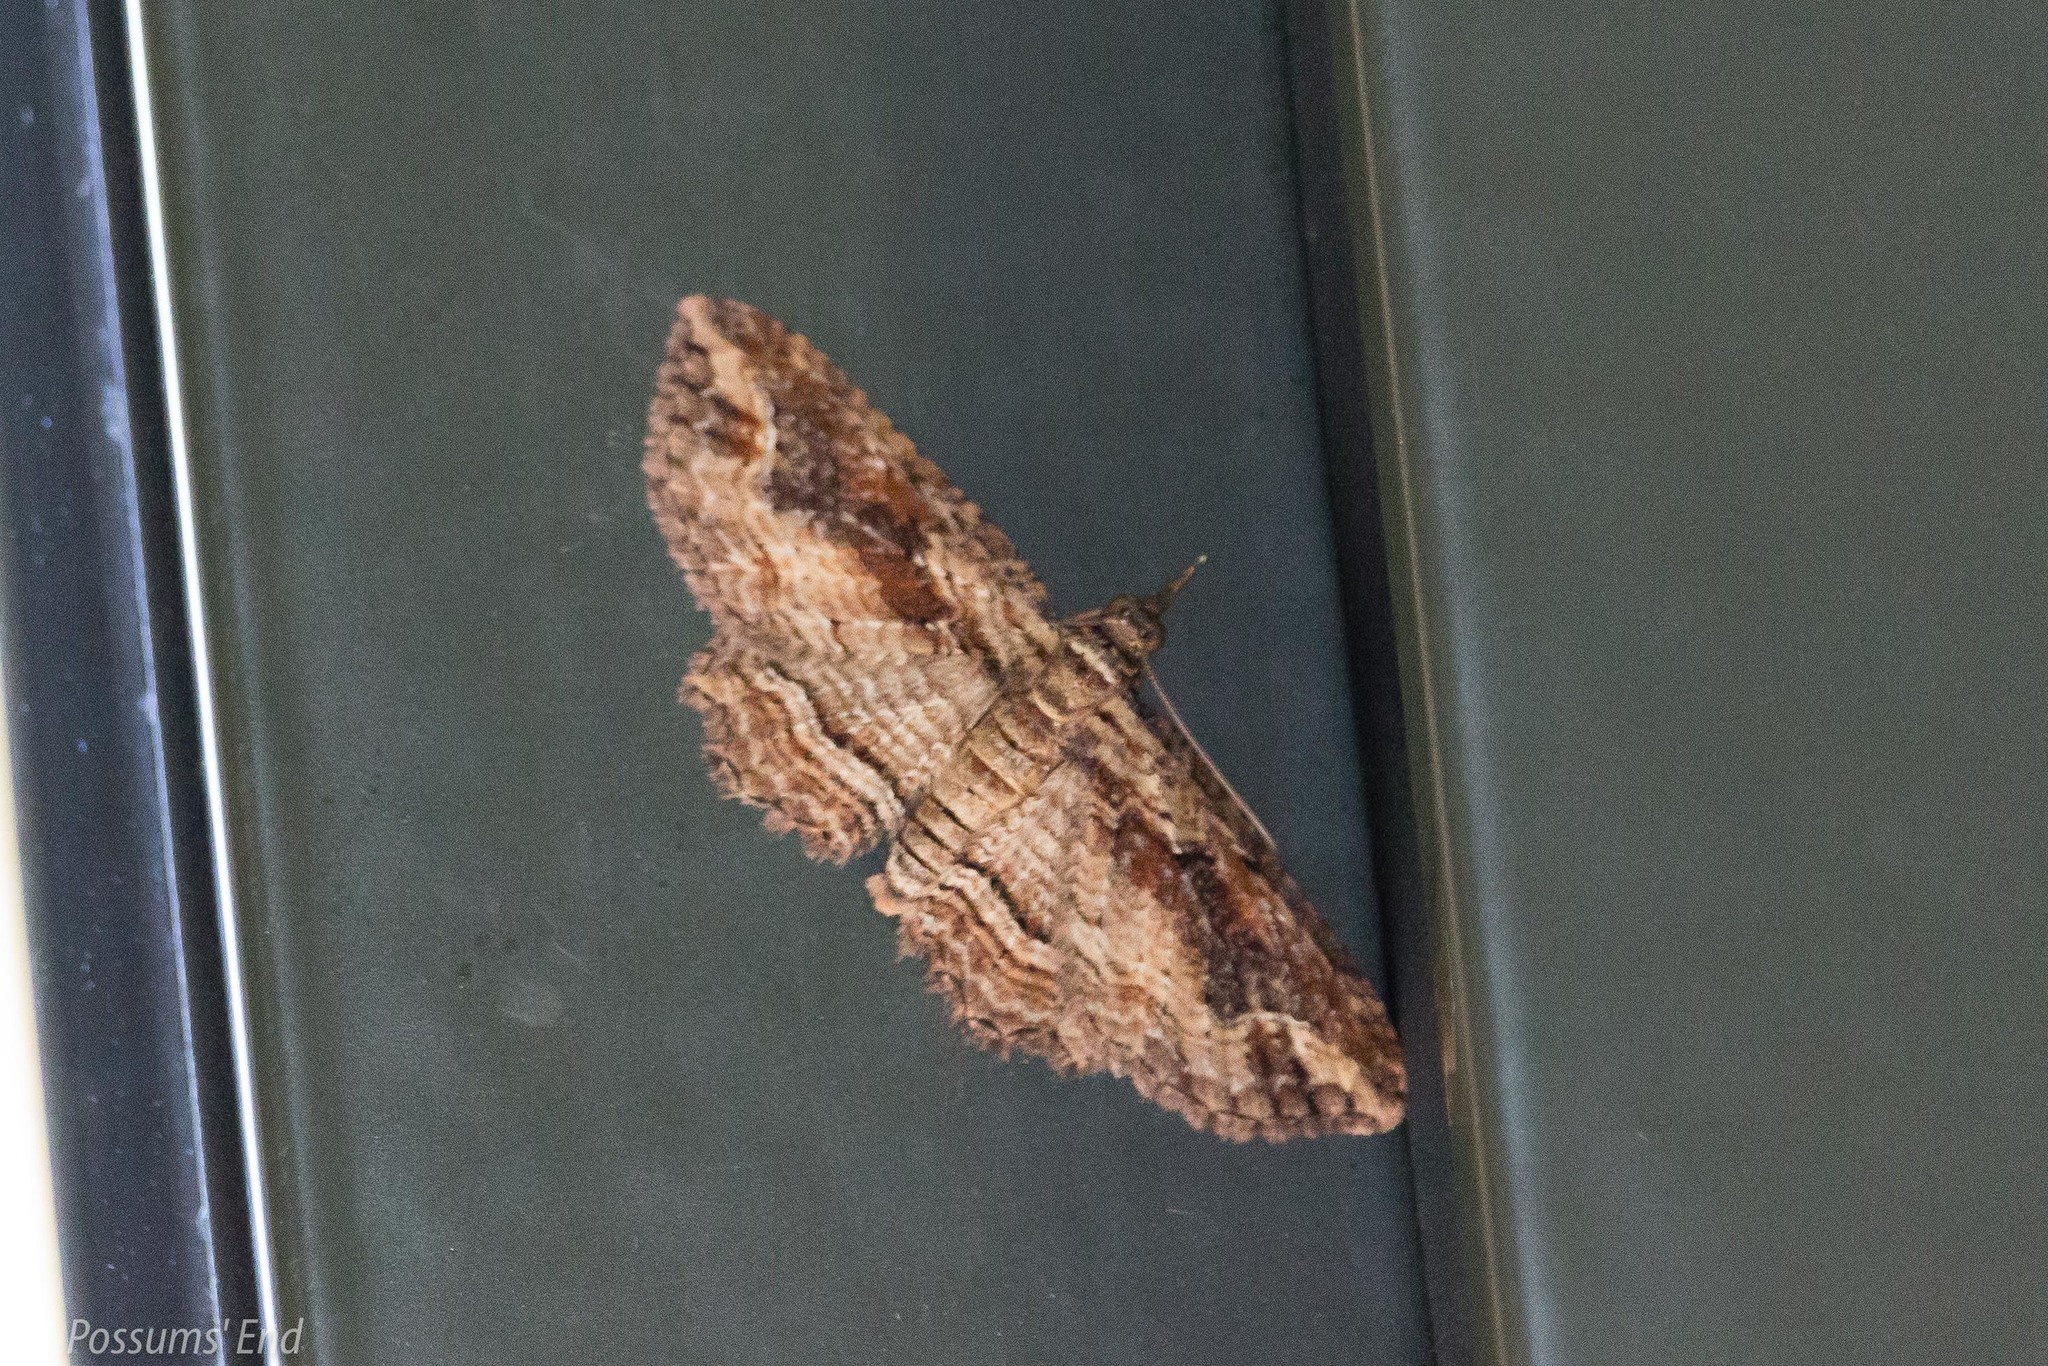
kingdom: Animalia
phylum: Arthropoda
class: Insecta
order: Lepidoptera
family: Geometridae
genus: Chloroclystis
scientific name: Chloroclystis filata
